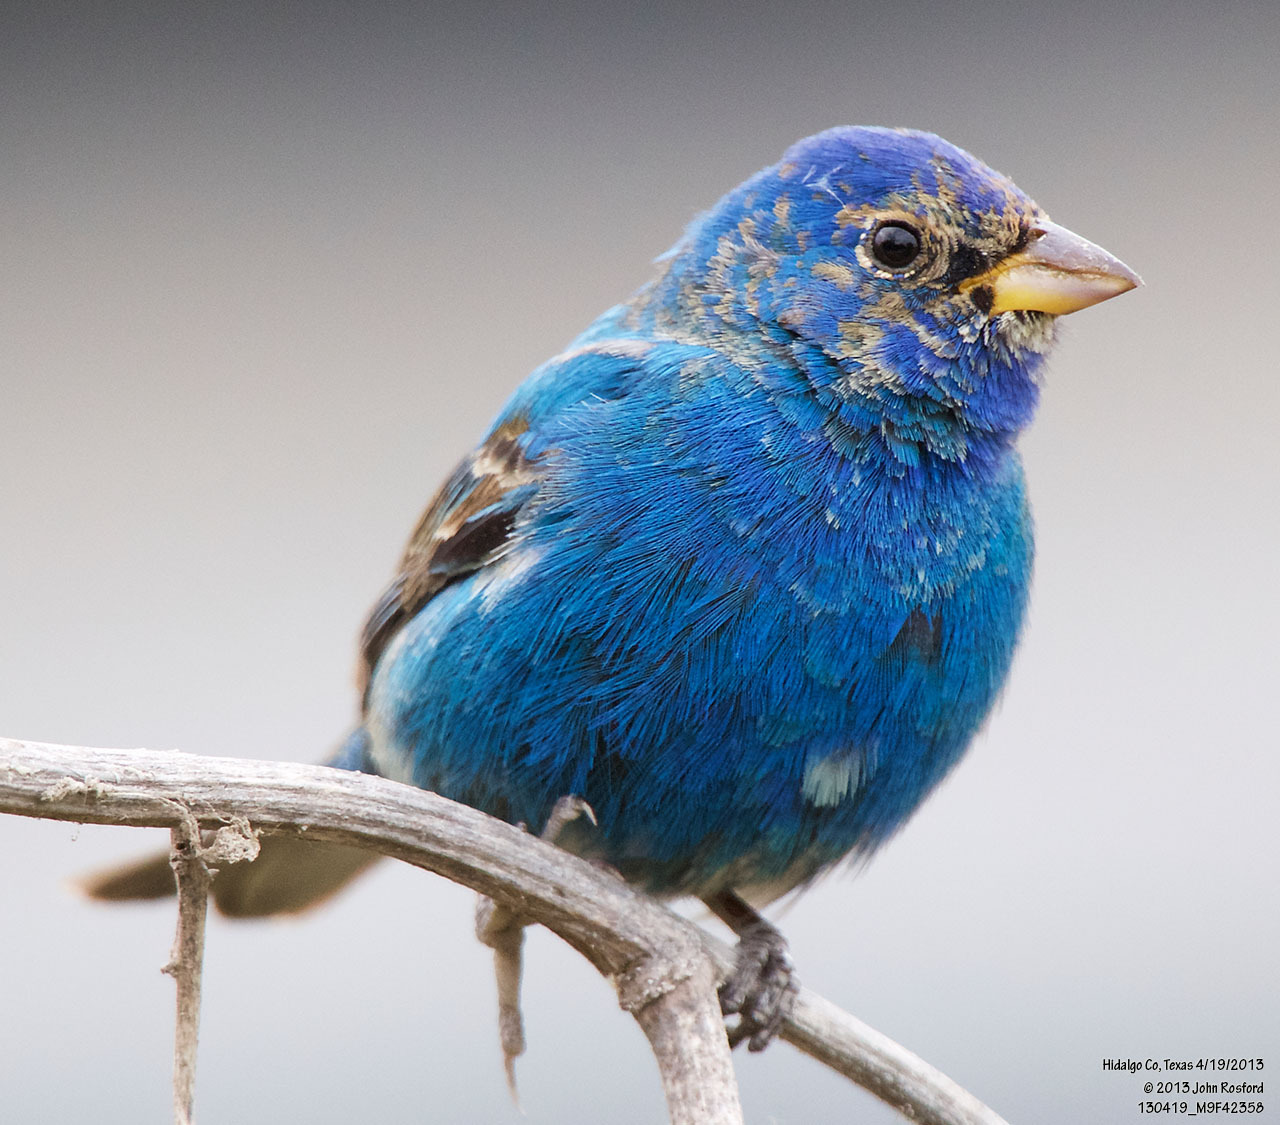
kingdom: Animalia
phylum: Chordata
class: Aves
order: Passeriformes
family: Cardinalidae
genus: Passerina
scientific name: Passerina cyanea
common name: Indigo bunting
